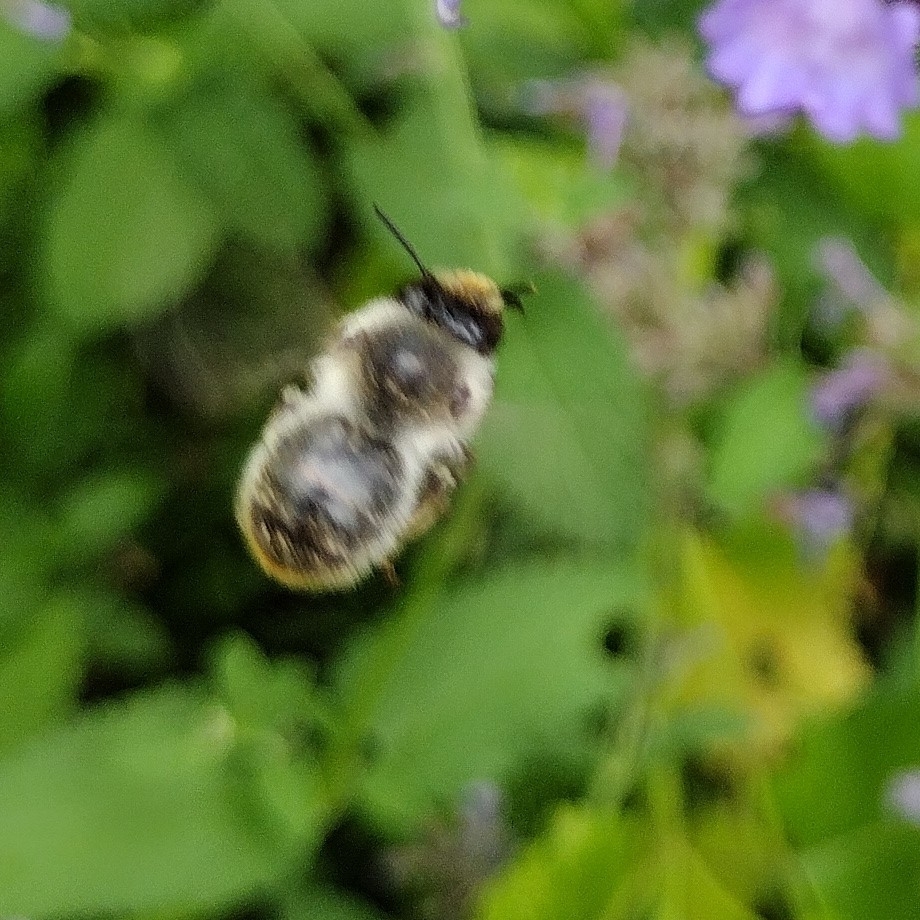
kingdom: Animalia
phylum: Arthropoda
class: Insecta
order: Hymenoptera
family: Apidae
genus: Anthophora
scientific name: Anthophora furcata
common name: Fork-tailed flower bee
